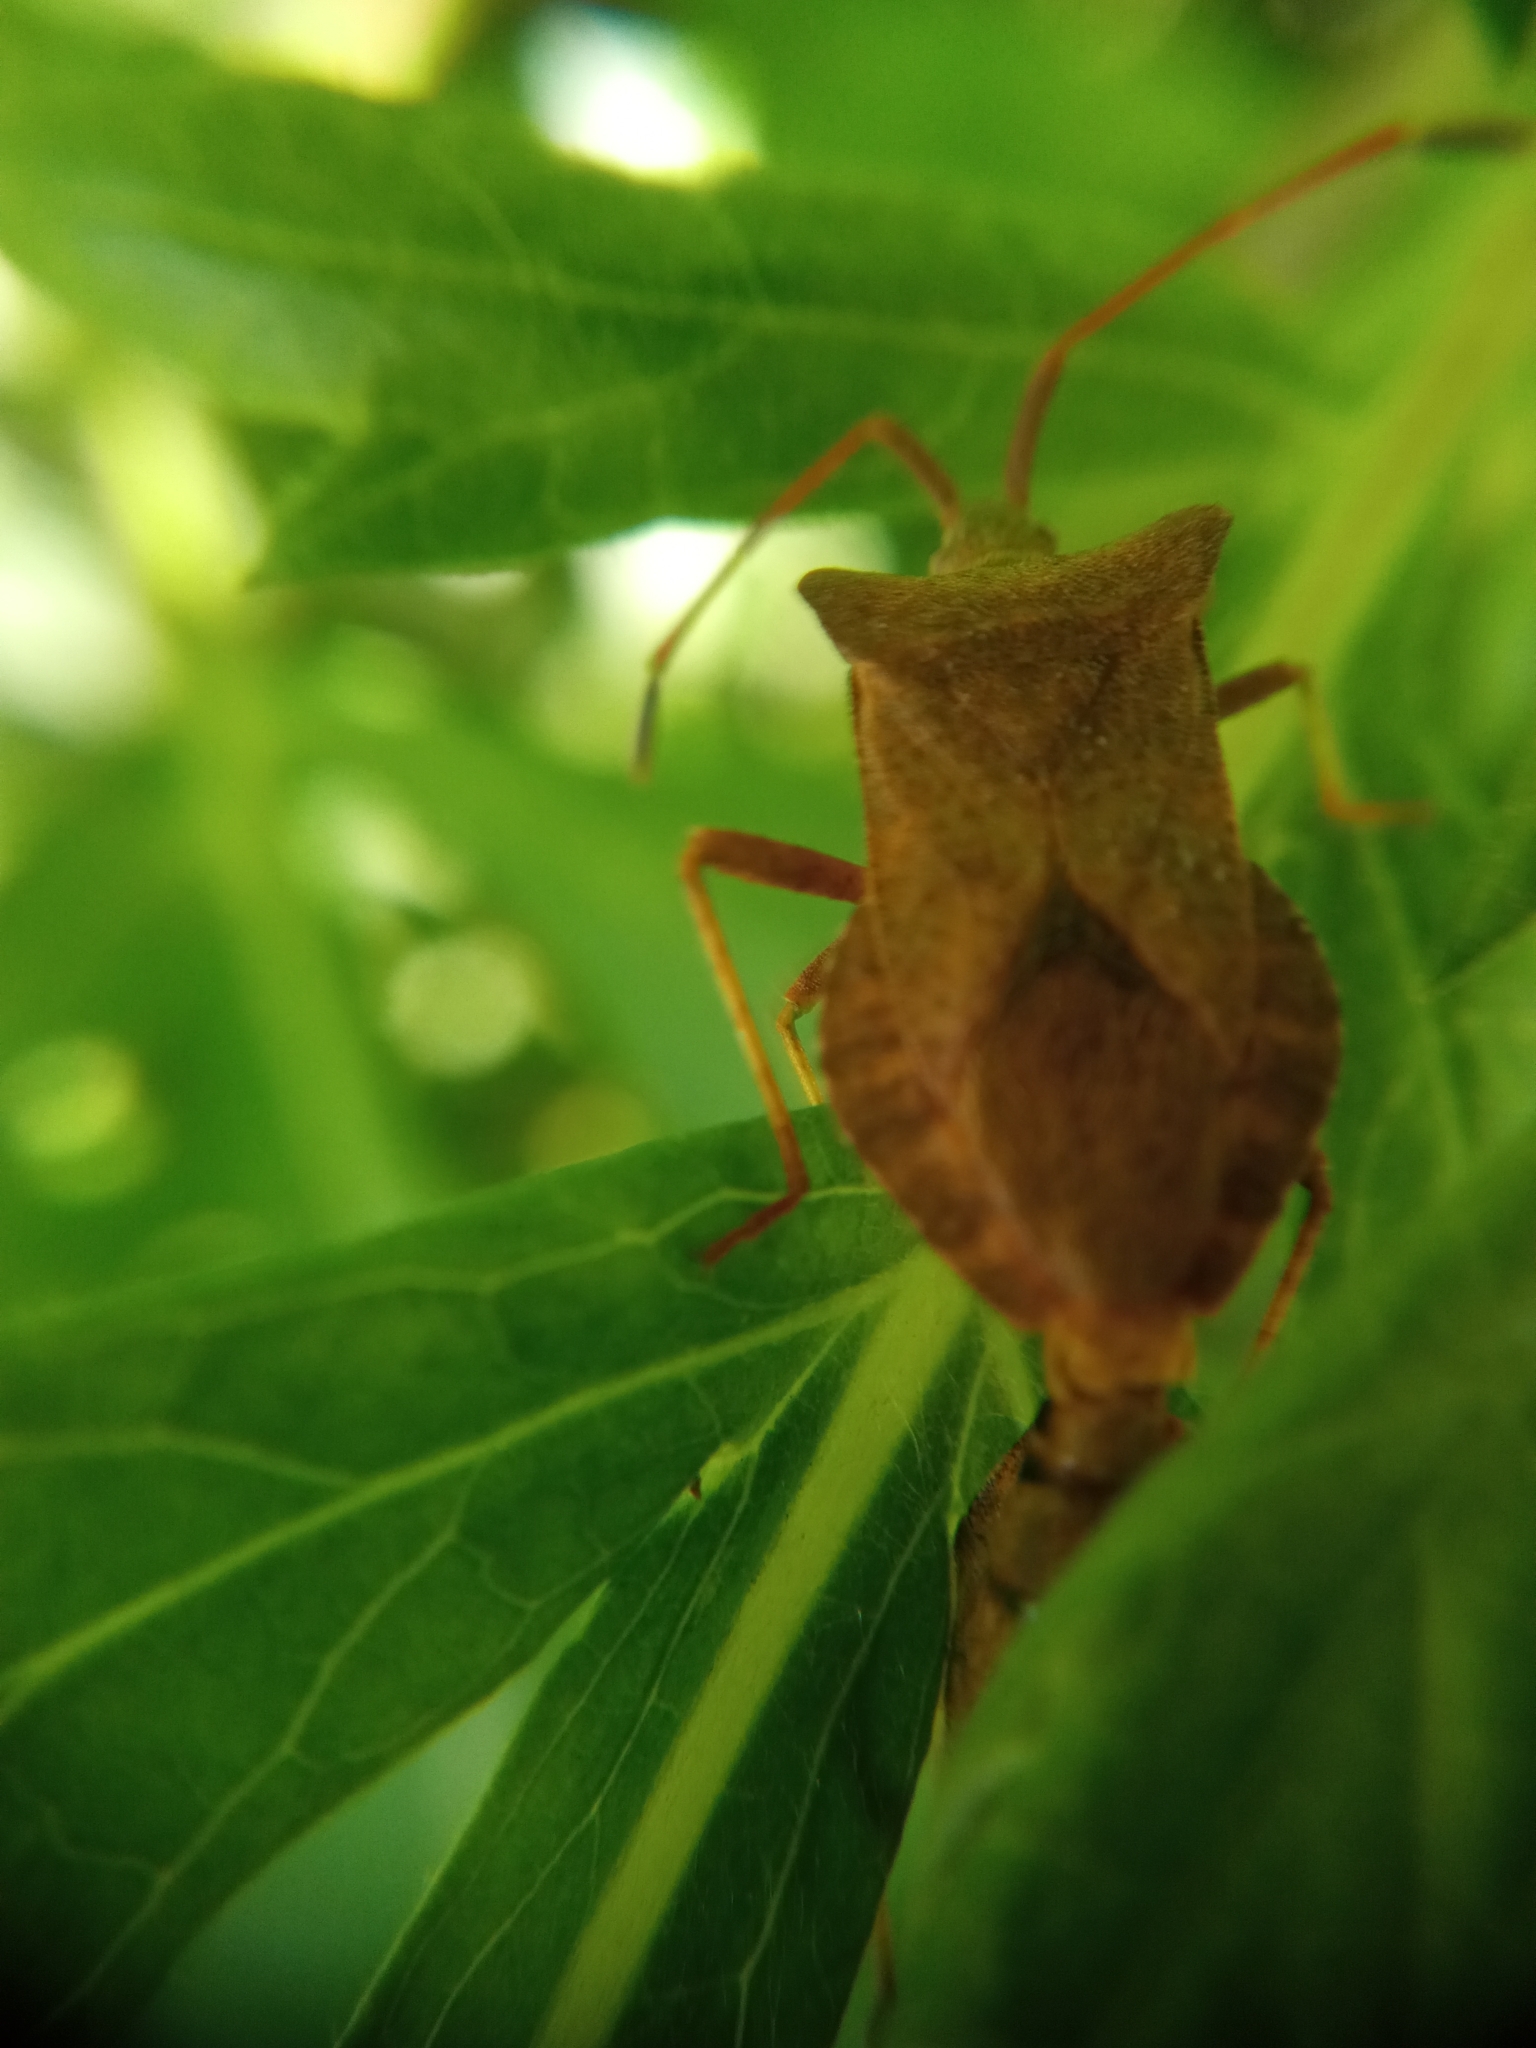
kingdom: Animalia
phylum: Arthropoda
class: Insecta
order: Hemiptera
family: Coreidae
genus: Coreus
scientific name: Coreus marginatus
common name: Dock bug
